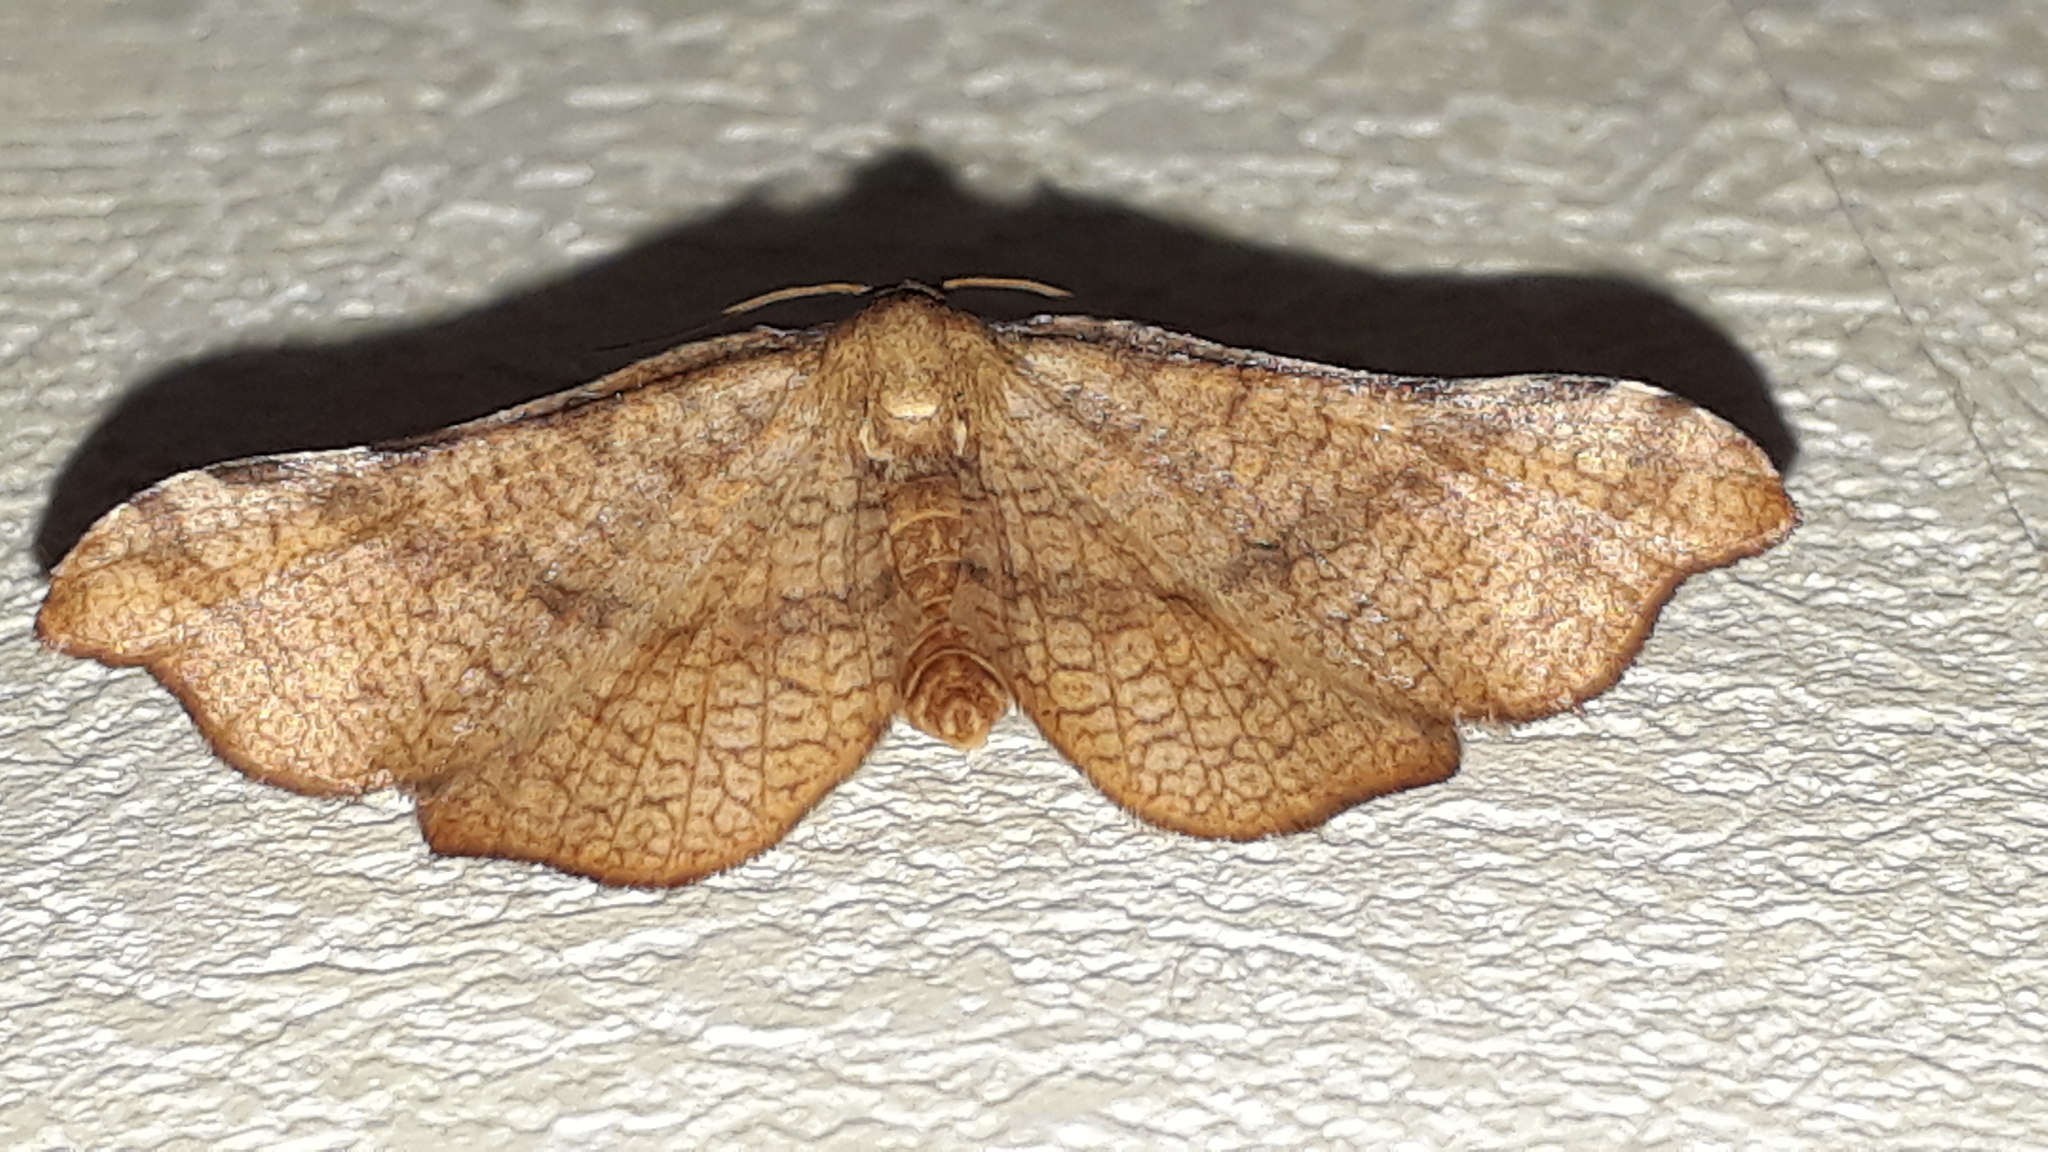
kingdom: Animalia
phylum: Arthropoda
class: Insecta
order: Lepidoptera
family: Thyrididae
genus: Morova
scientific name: Morova subfasciata
